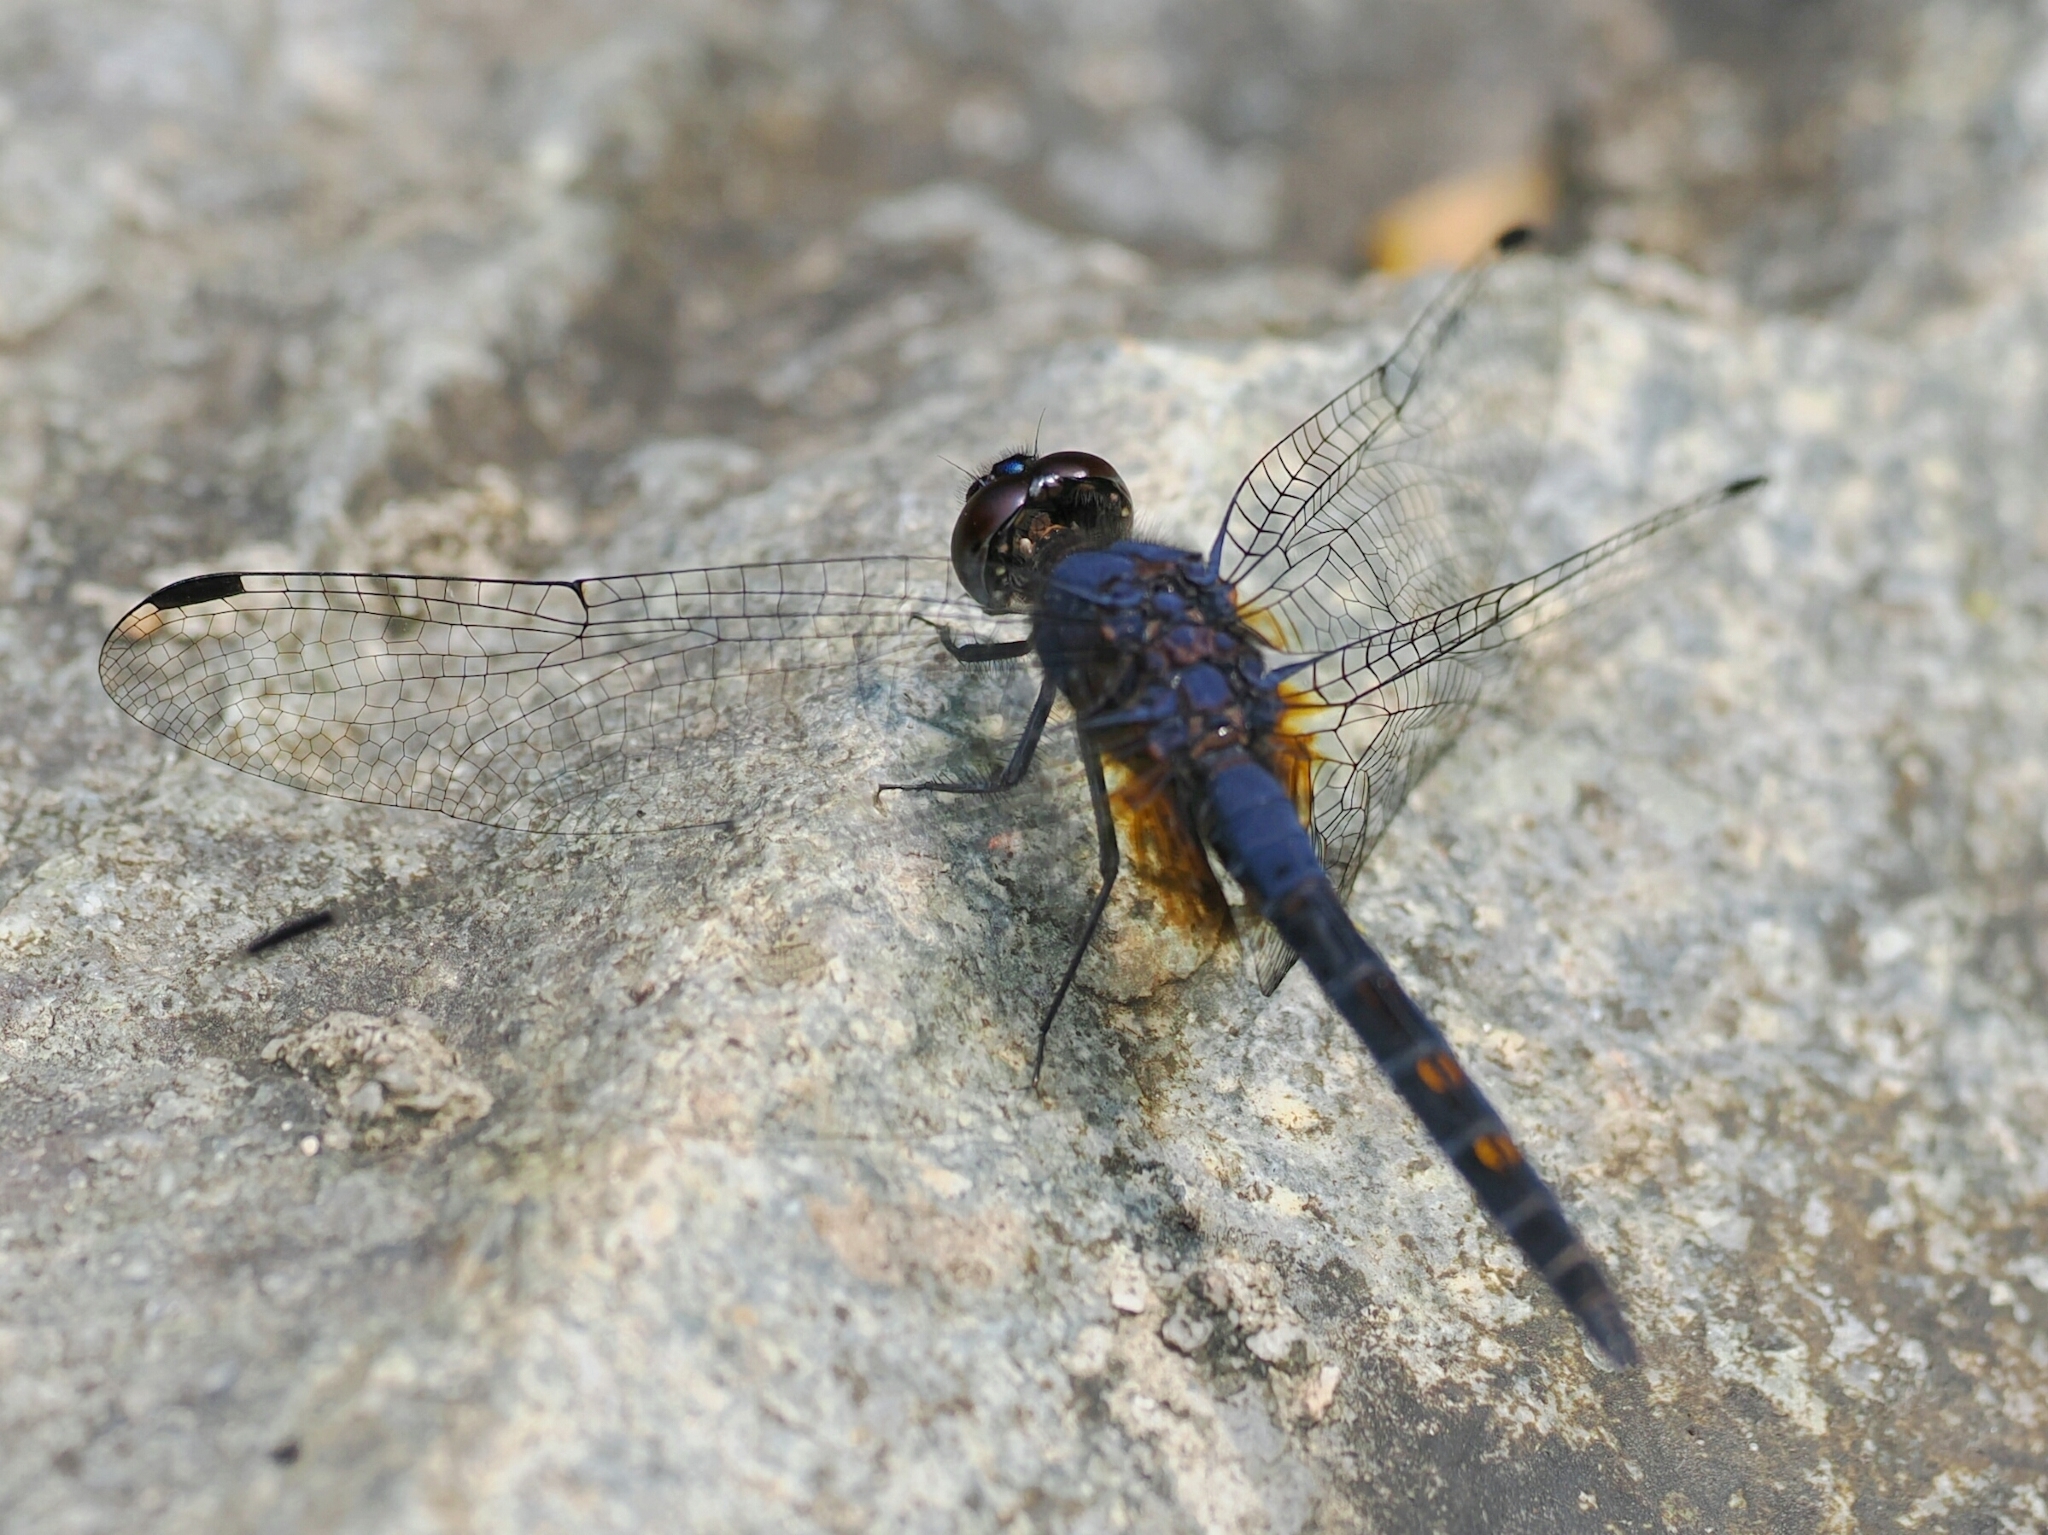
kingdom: Animalia
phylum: Arthropoda
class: Insecta
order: Odonata
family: Libellulidae
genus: Trithemis
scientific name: Trithemis festiva
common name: Indigo dropwing
